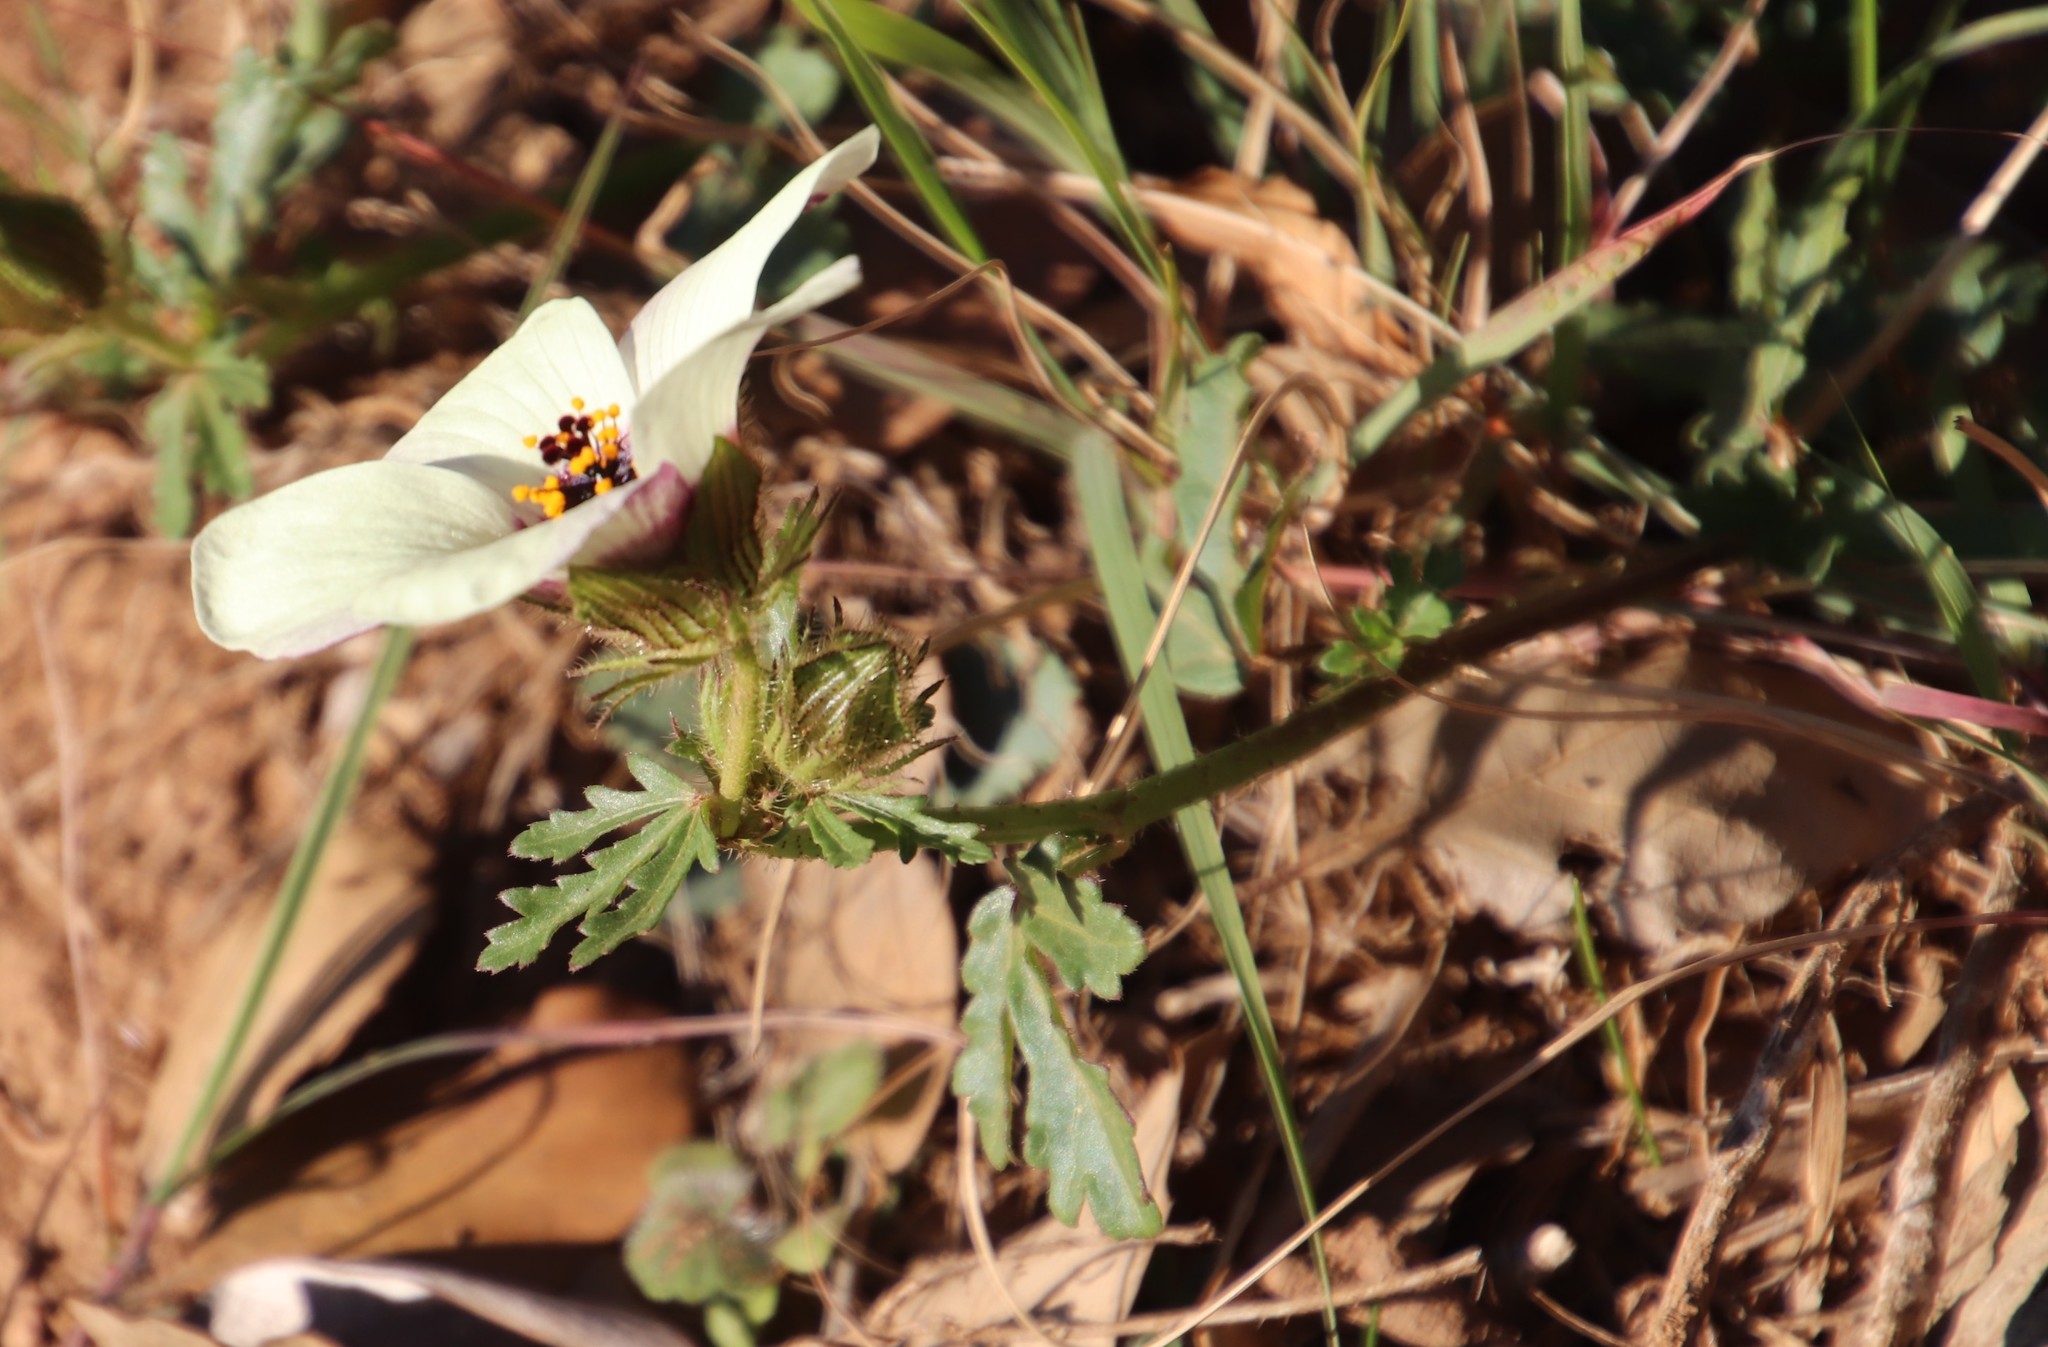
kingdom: Plantae
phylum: Tracheophyta
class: Magnoliopsida
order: Malvales
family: Malvaceae
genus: Hibiscus
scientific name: Hibiscus trionum
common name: Bladder ketmia
